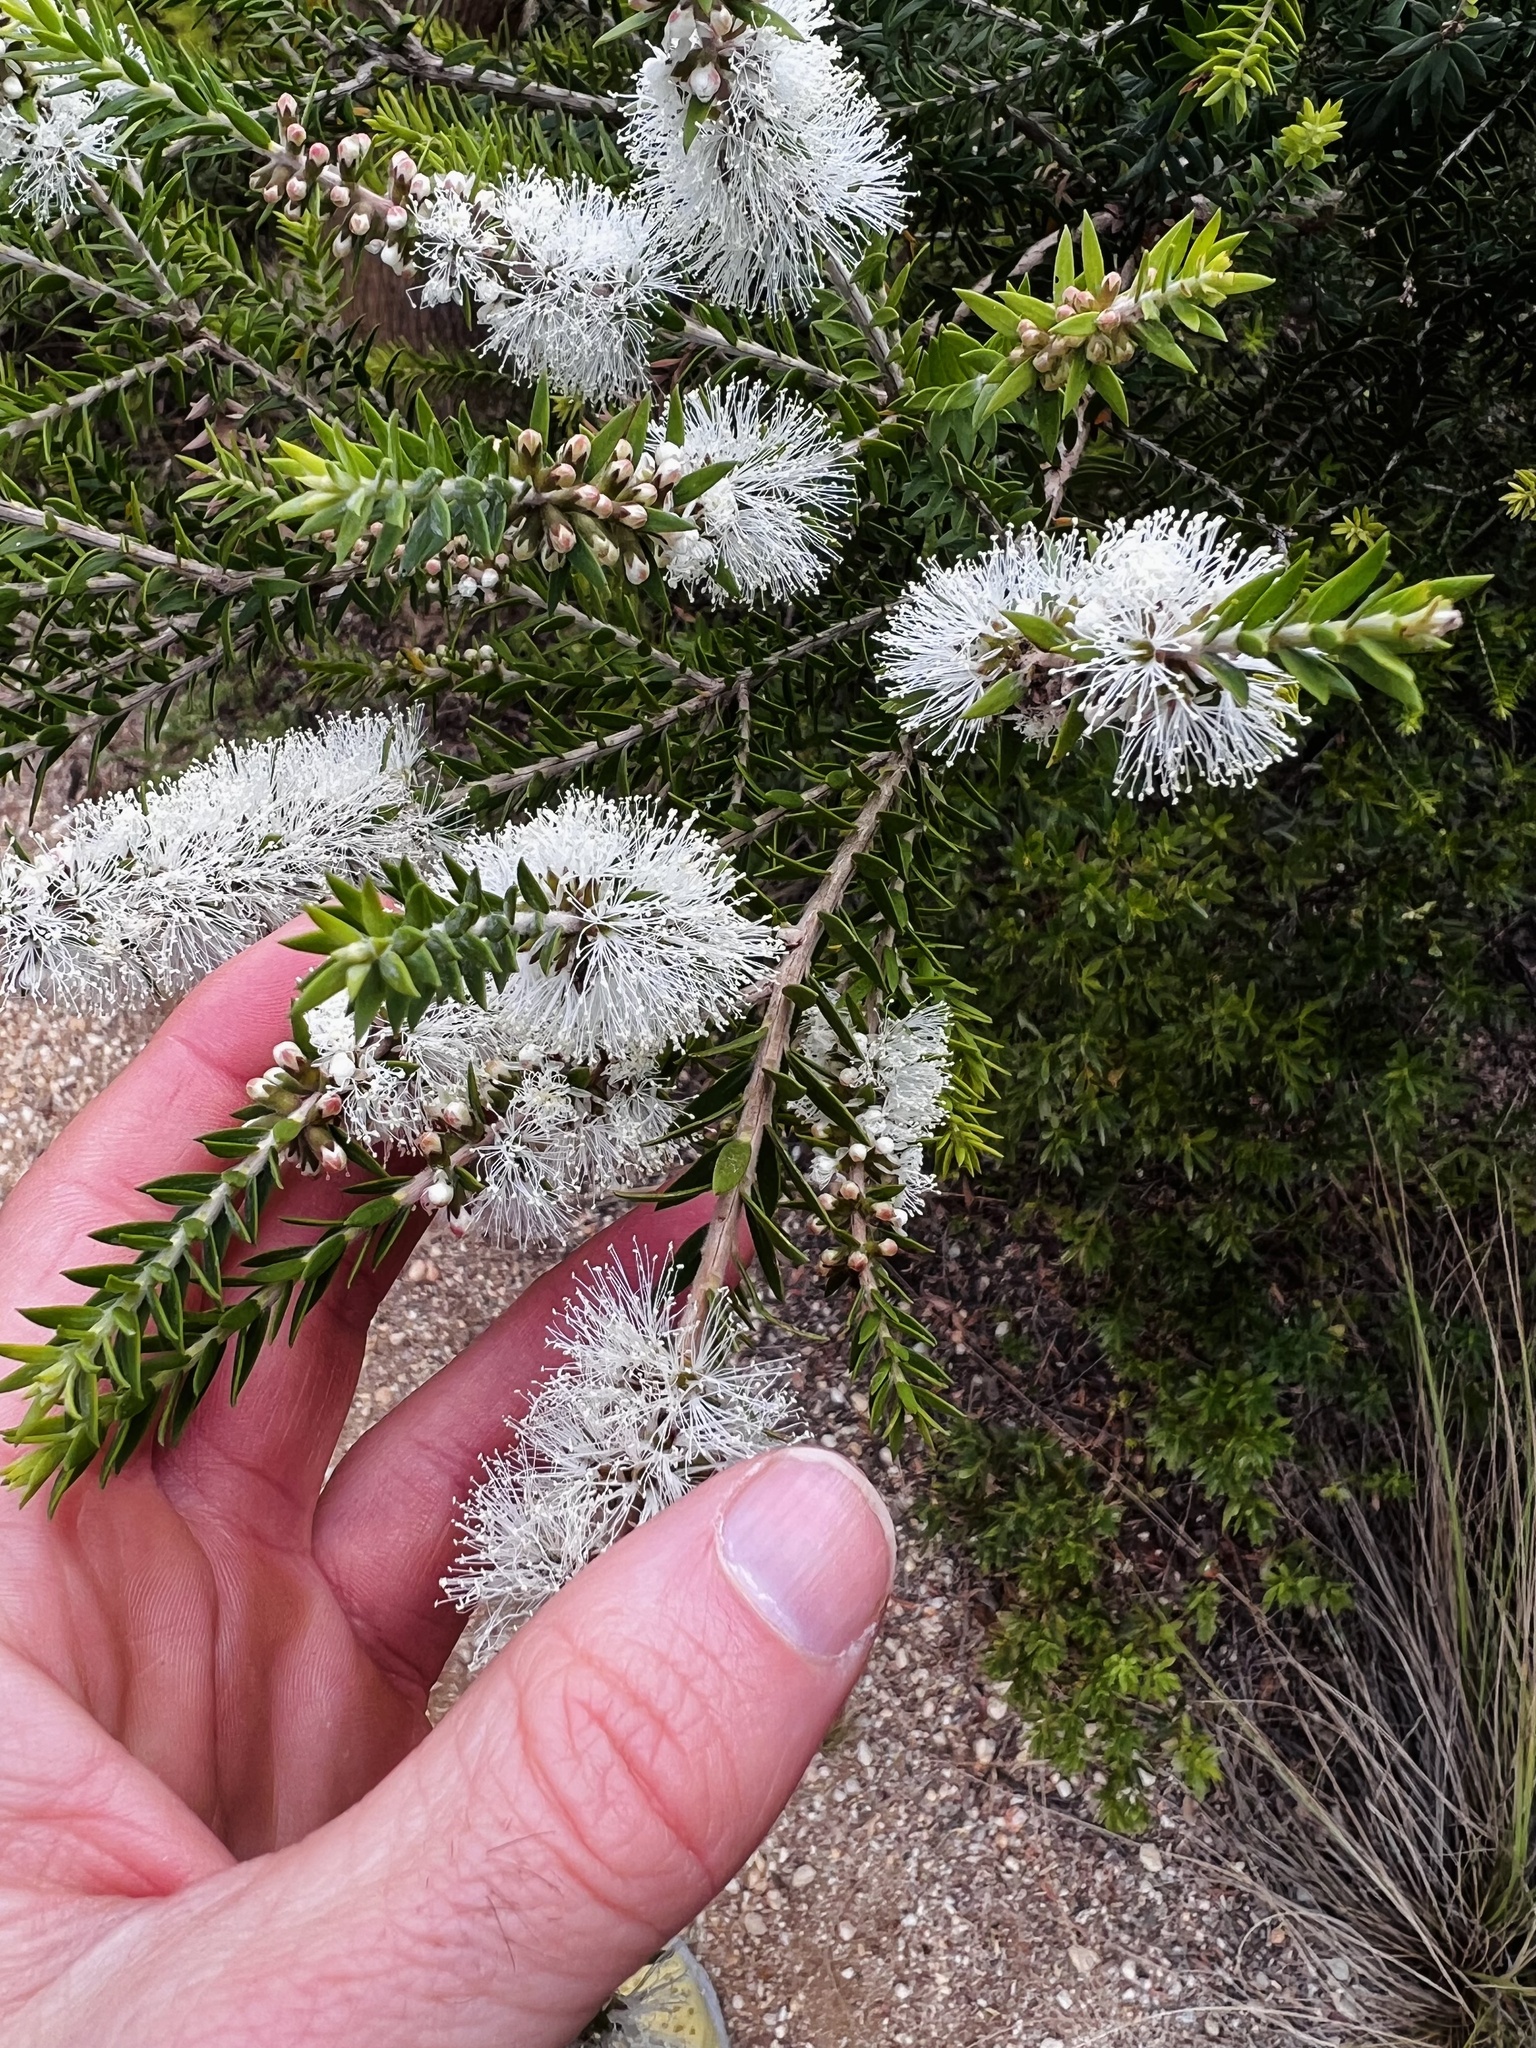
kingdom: Plantae
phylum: Tracheophyta
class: Magnoliopsida
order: Myrtales
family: Myrtaceae
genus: Melaleuca
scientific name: Melaleuca lanceolata
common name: Rottnest island teatree
